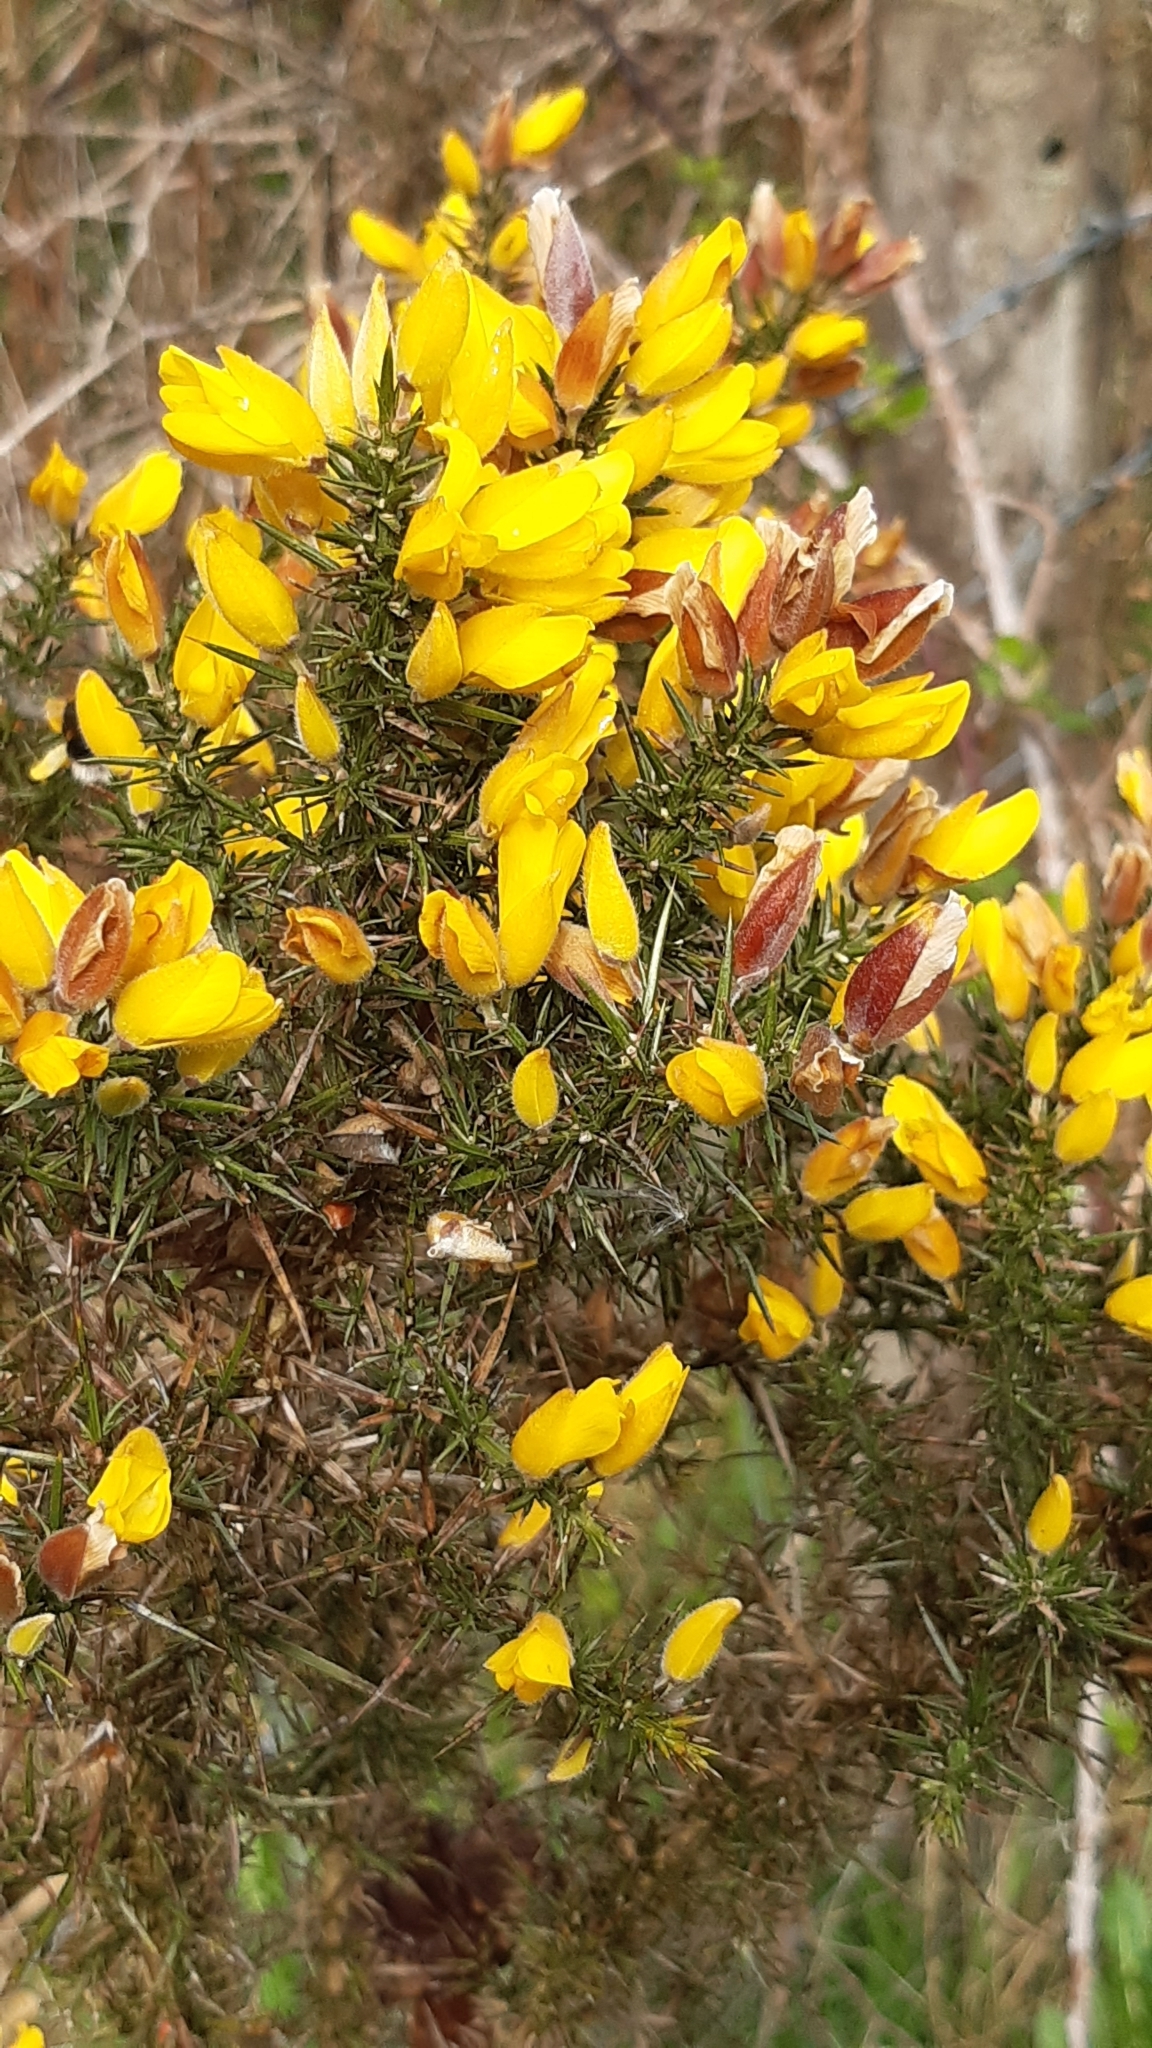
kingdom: Plantae
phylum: Tracheophyta
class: Magnoliopsida
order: Fabales
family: Fabaceae
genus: Ulex
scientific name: Ulex europaeus
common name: Common gorse
